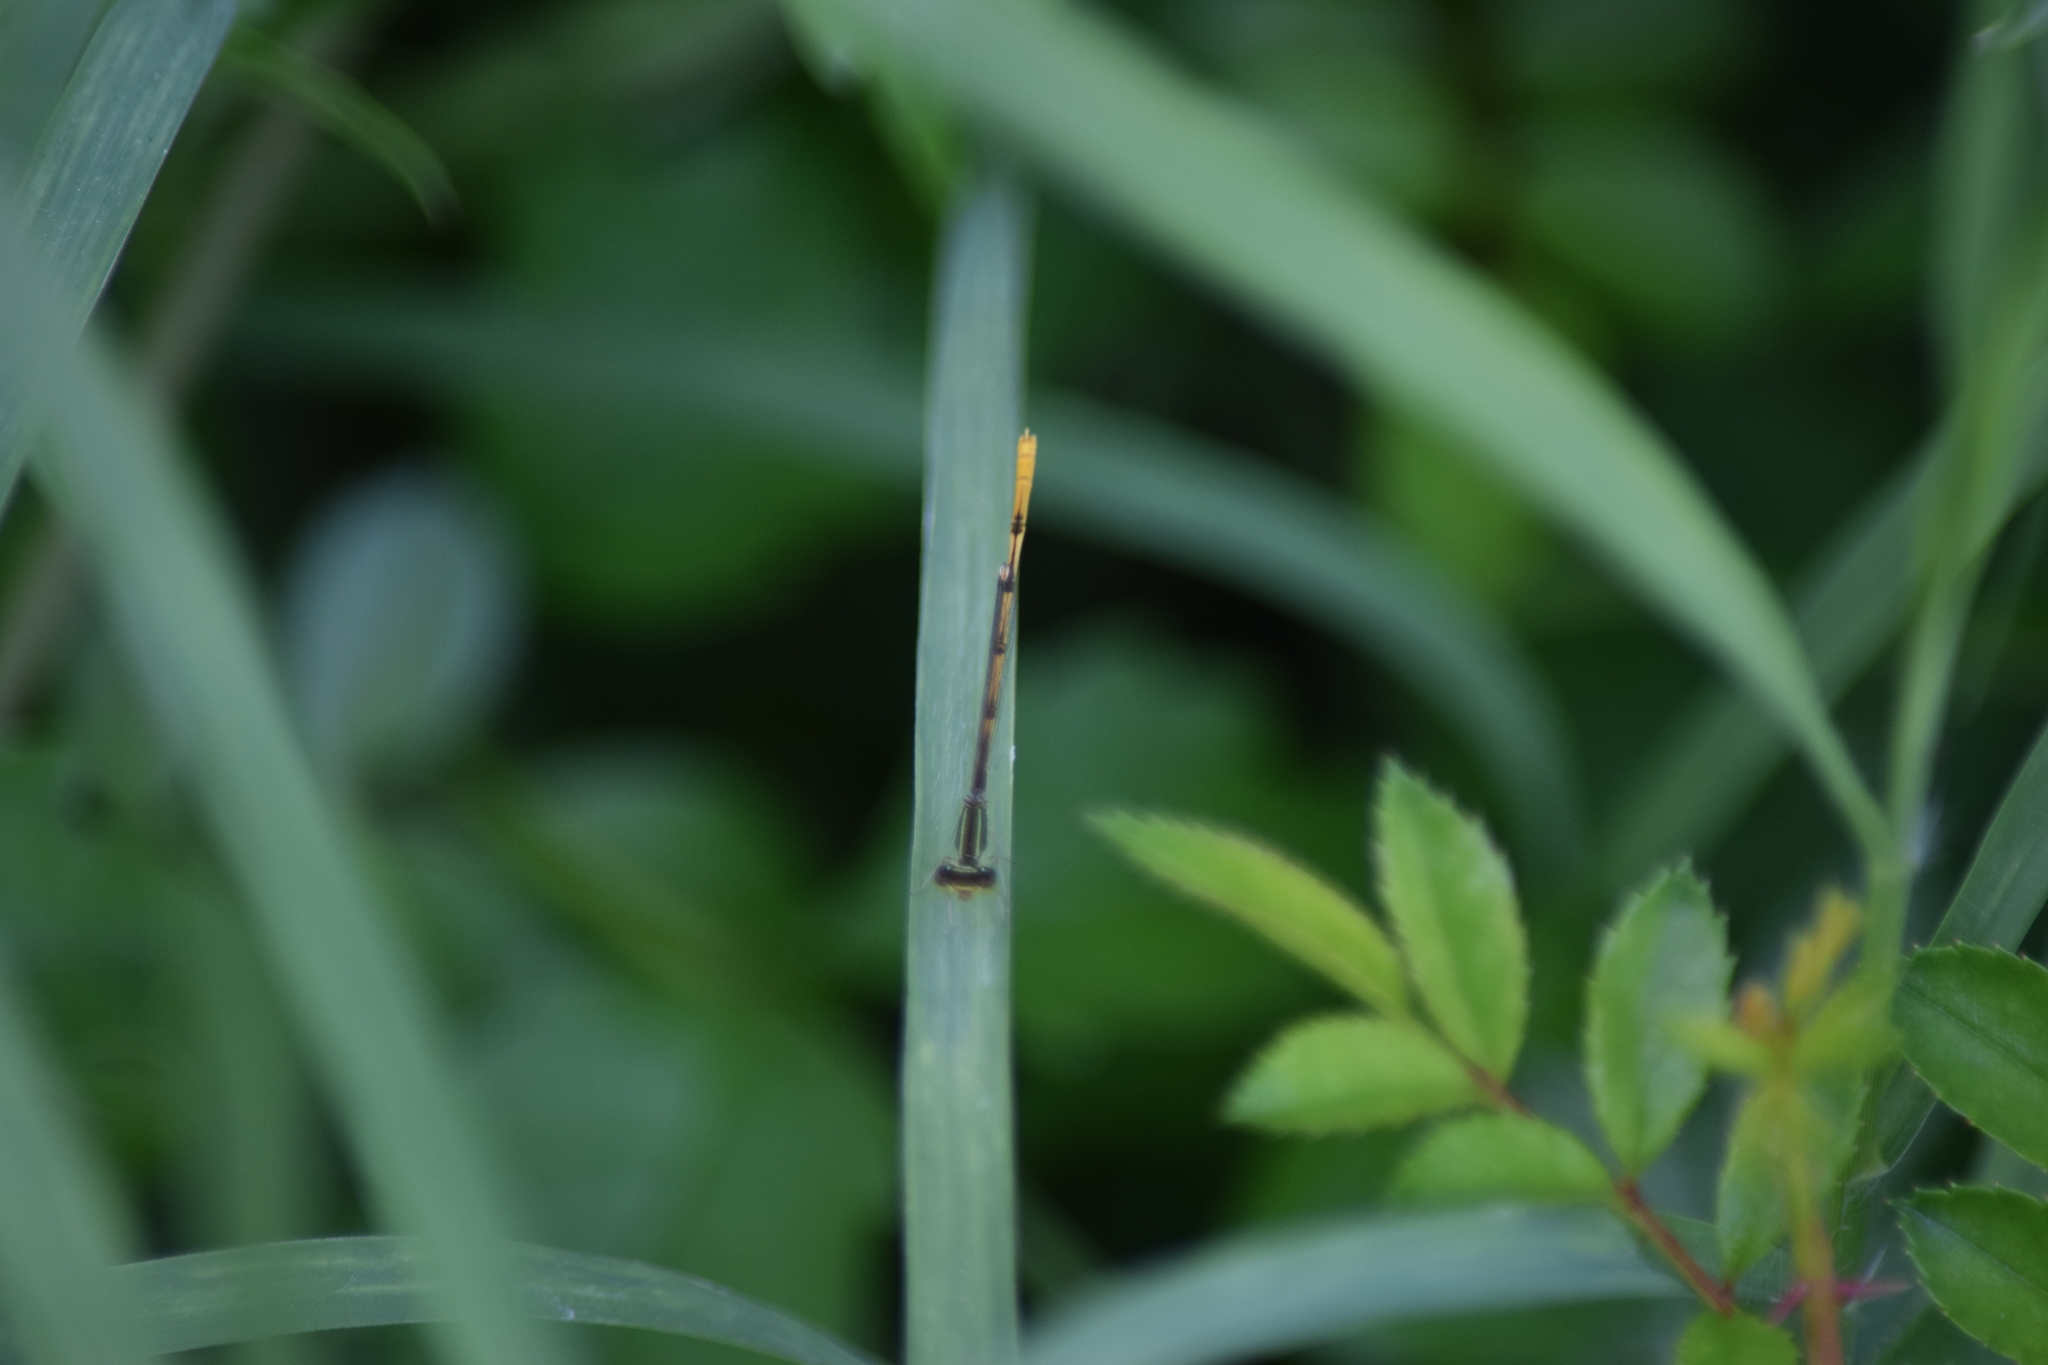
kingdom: Animalia
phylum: Arthropoda
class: Insecta
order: Odonata
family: Coenagrionidae
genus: Ischnura
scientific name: Ischnura hastata
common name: Citrine forktail
